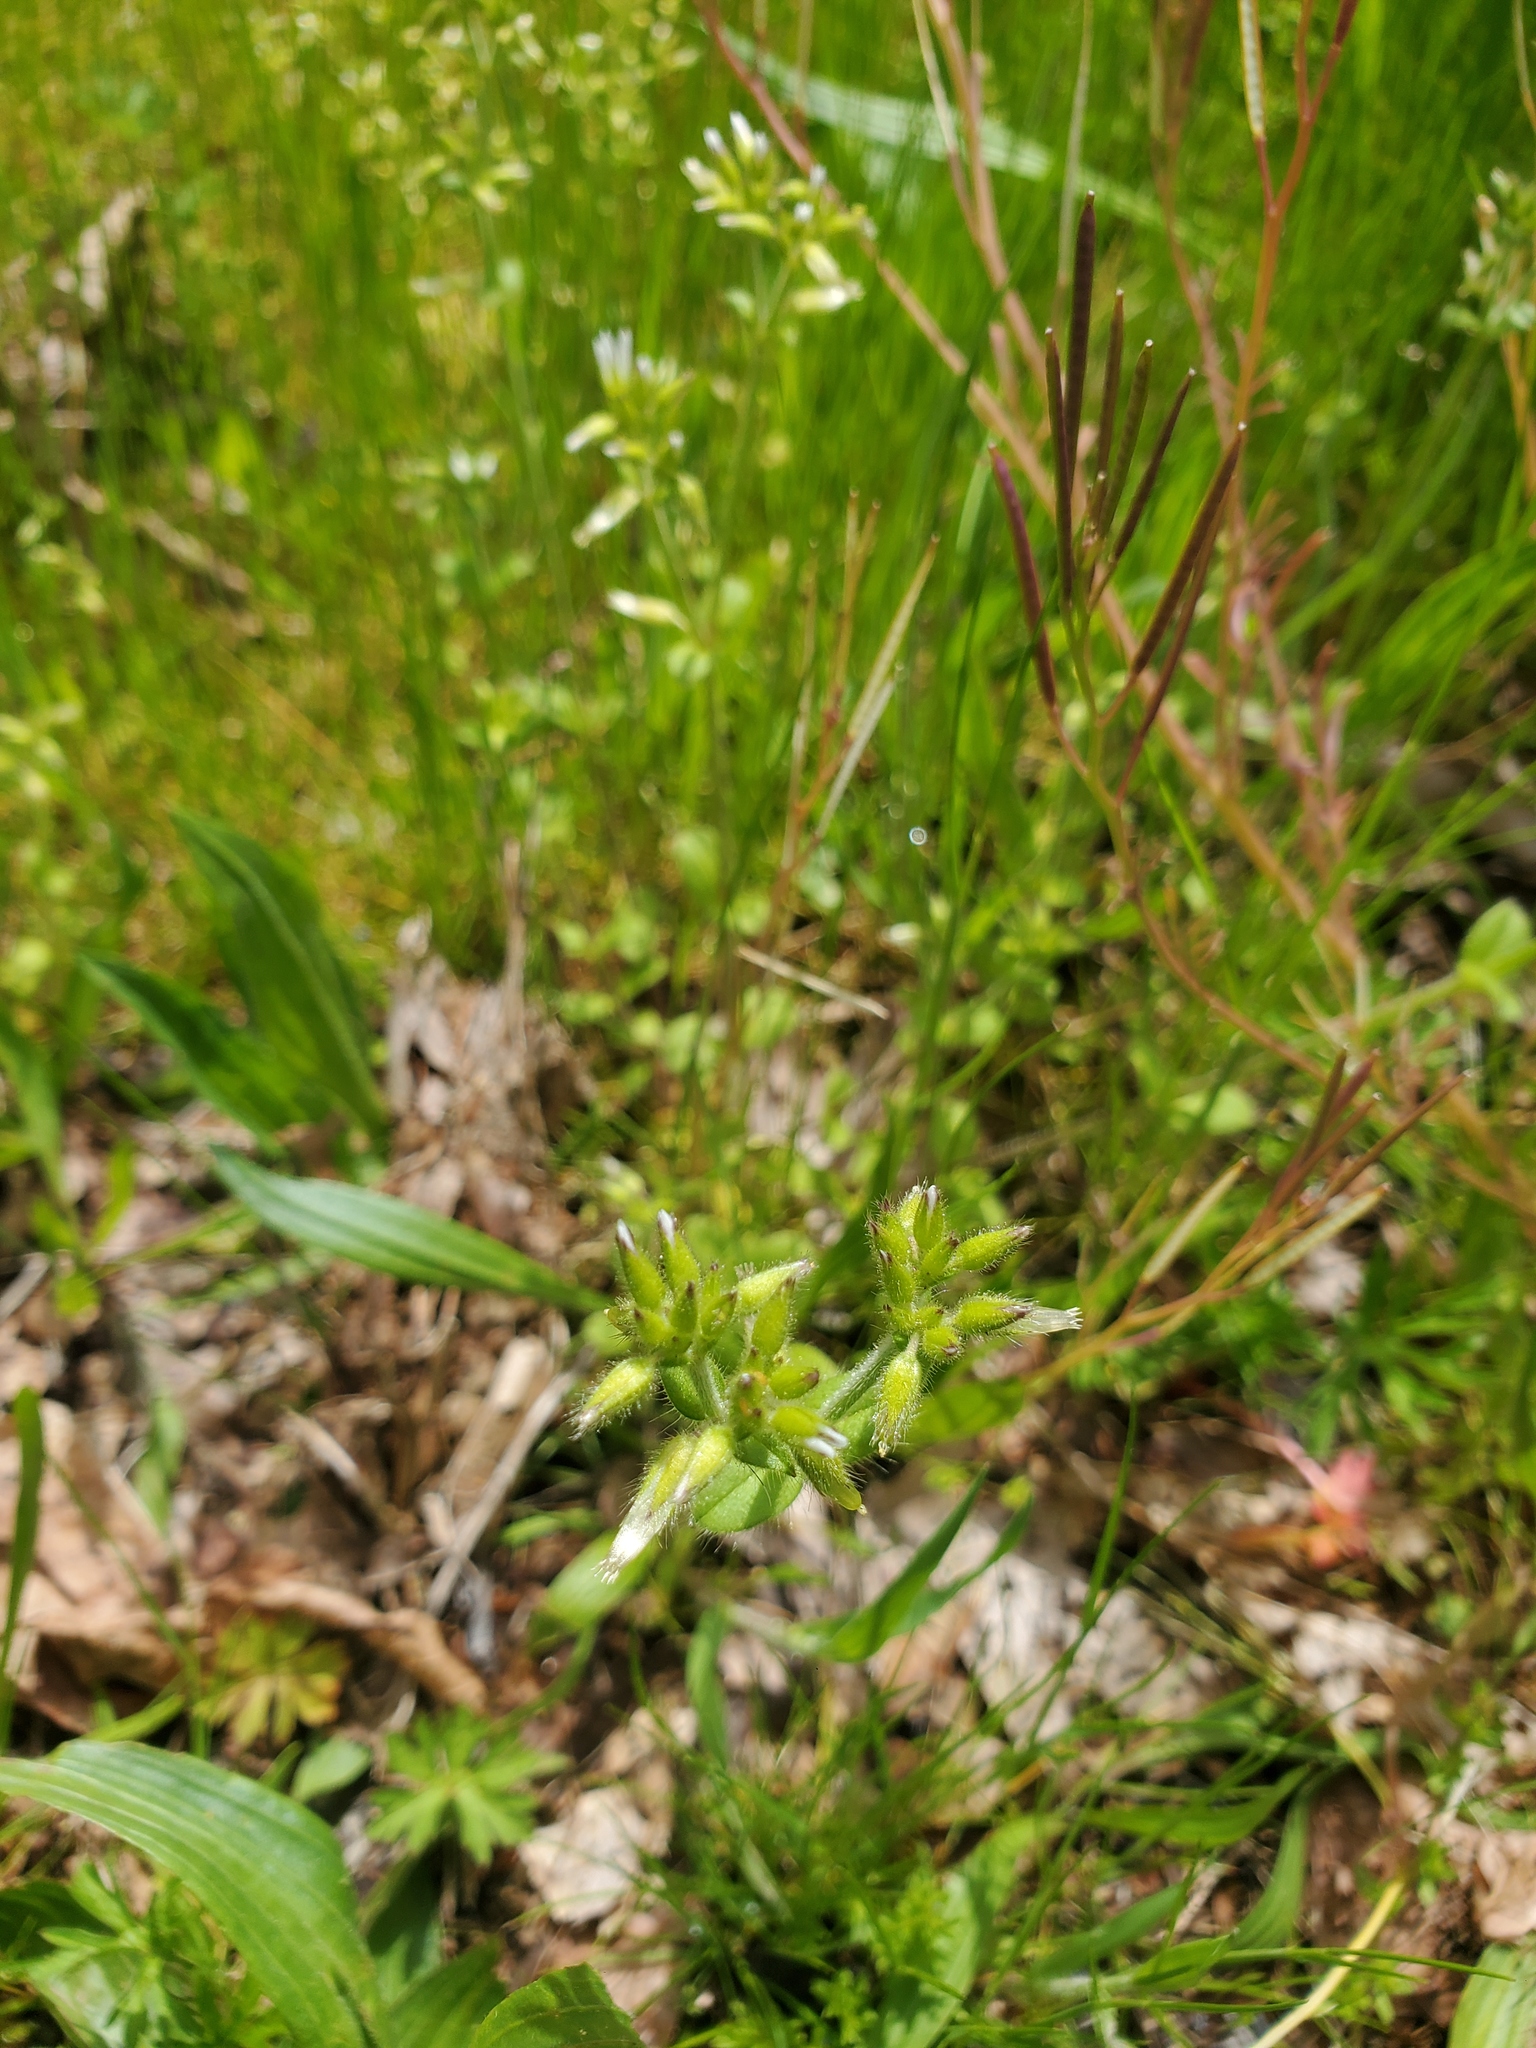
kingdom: Plantae
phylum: Tracheophyta
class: Magnoliopsida
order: Caryophyllales
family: Caryophyllaceae
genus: Cerastium
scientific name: Cerastium glomeratum
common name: Sticky chickweed
